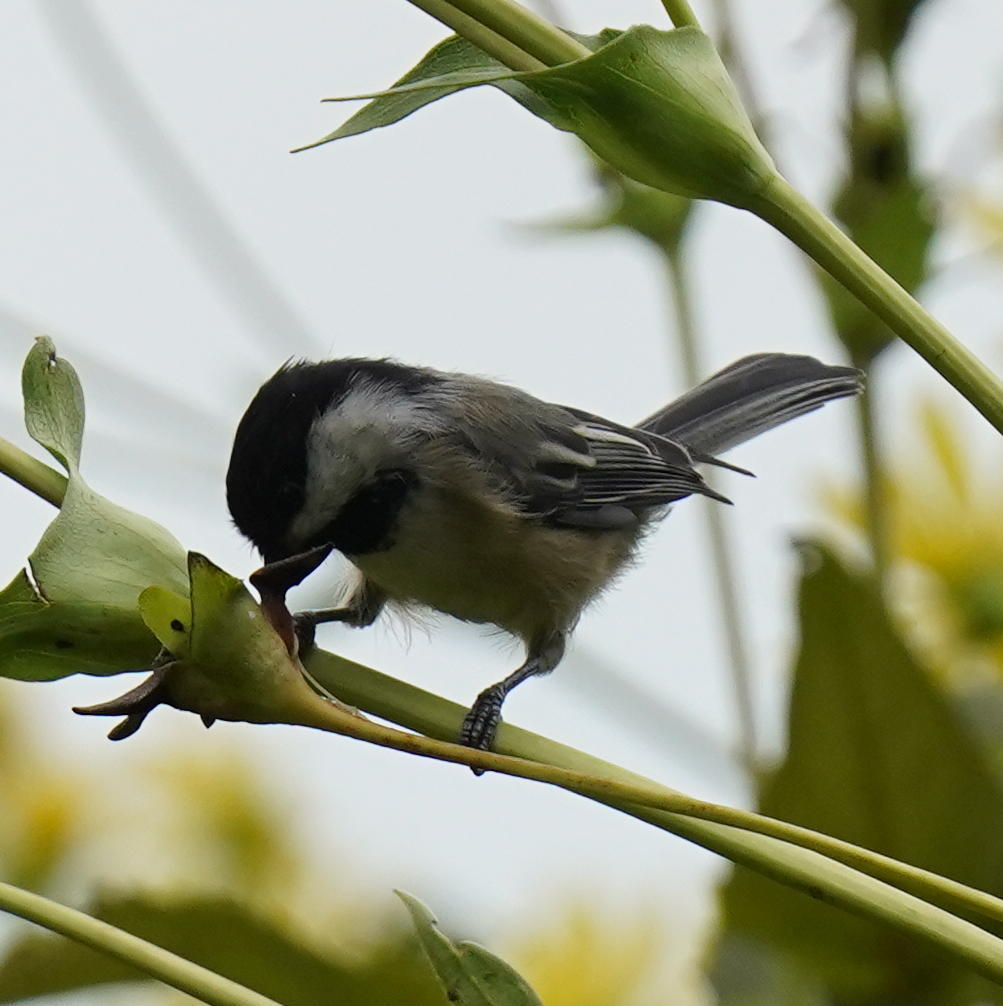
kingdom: Animalia
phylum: Chordata
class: Aves
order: Passeriformes
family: Paridae
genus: Poecile
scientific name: Poecile atricapillus
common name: Black-capped chickadee
